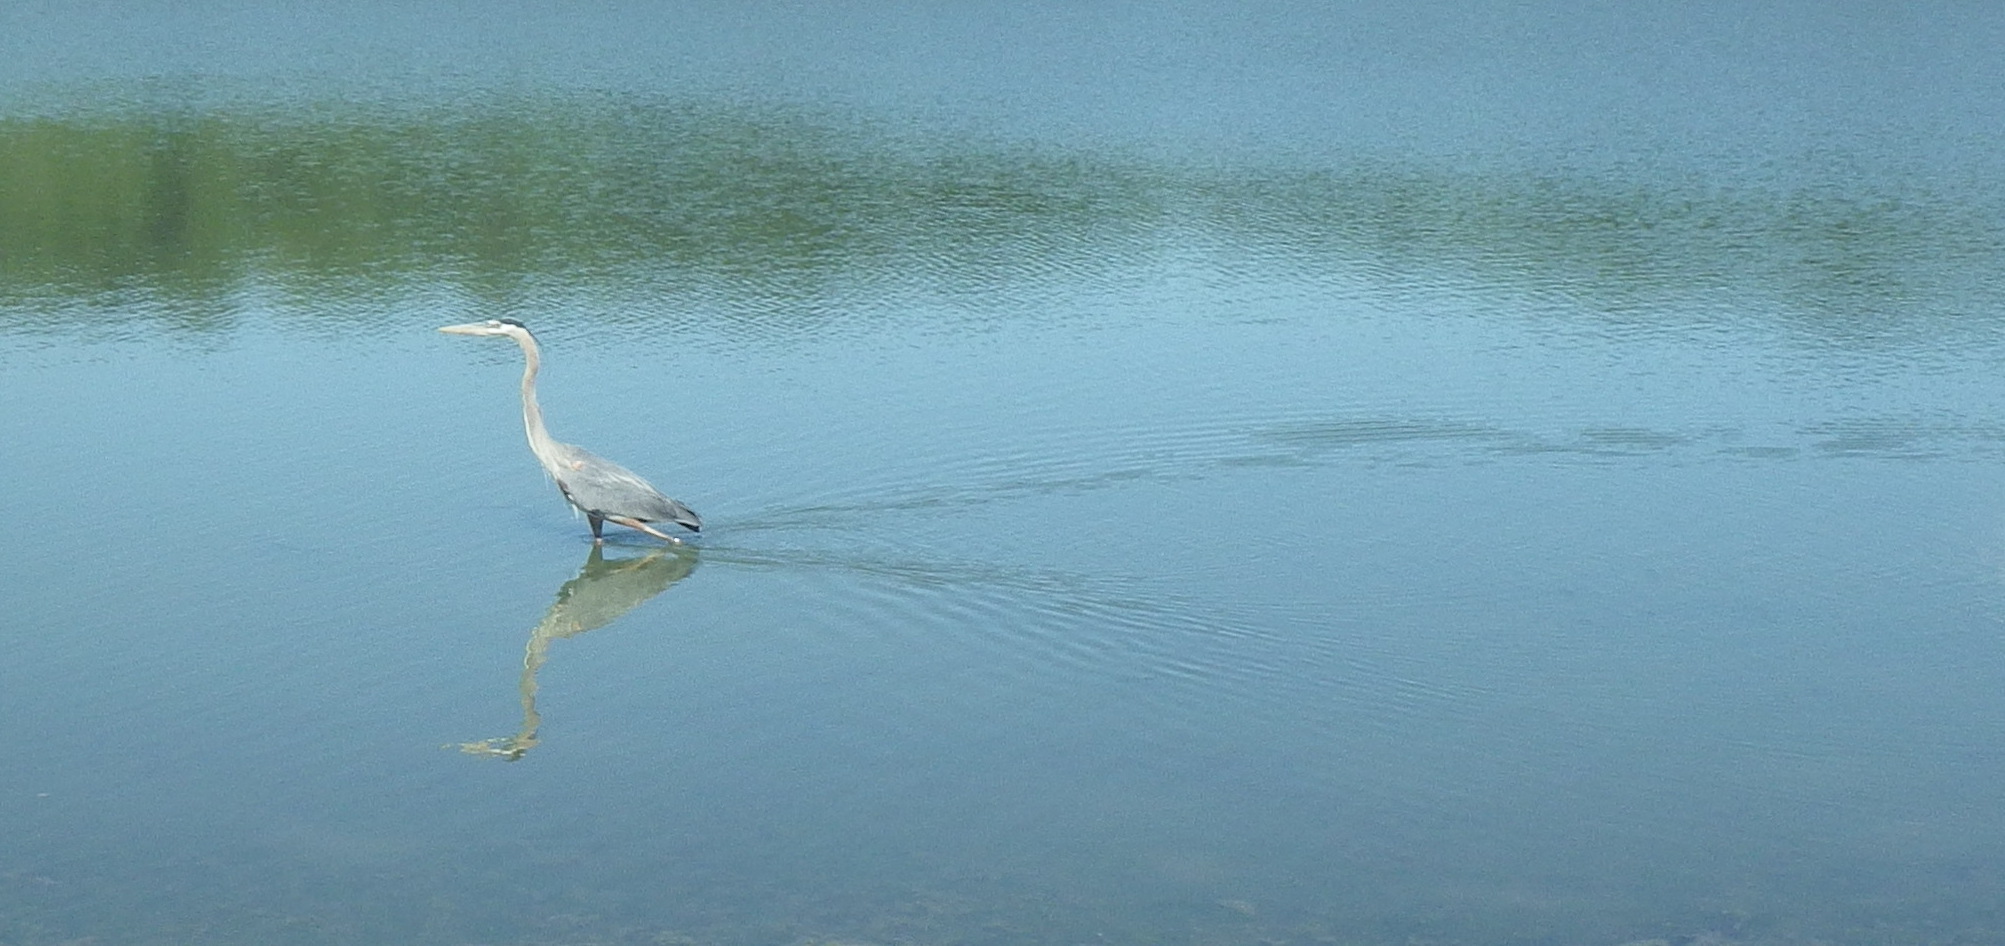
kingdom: Animalia
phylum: Chordata
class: Aves
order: Pelecaniformes
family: Ardeidae
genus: Ardea
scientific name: Ardea herodias
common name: Great blue heron
